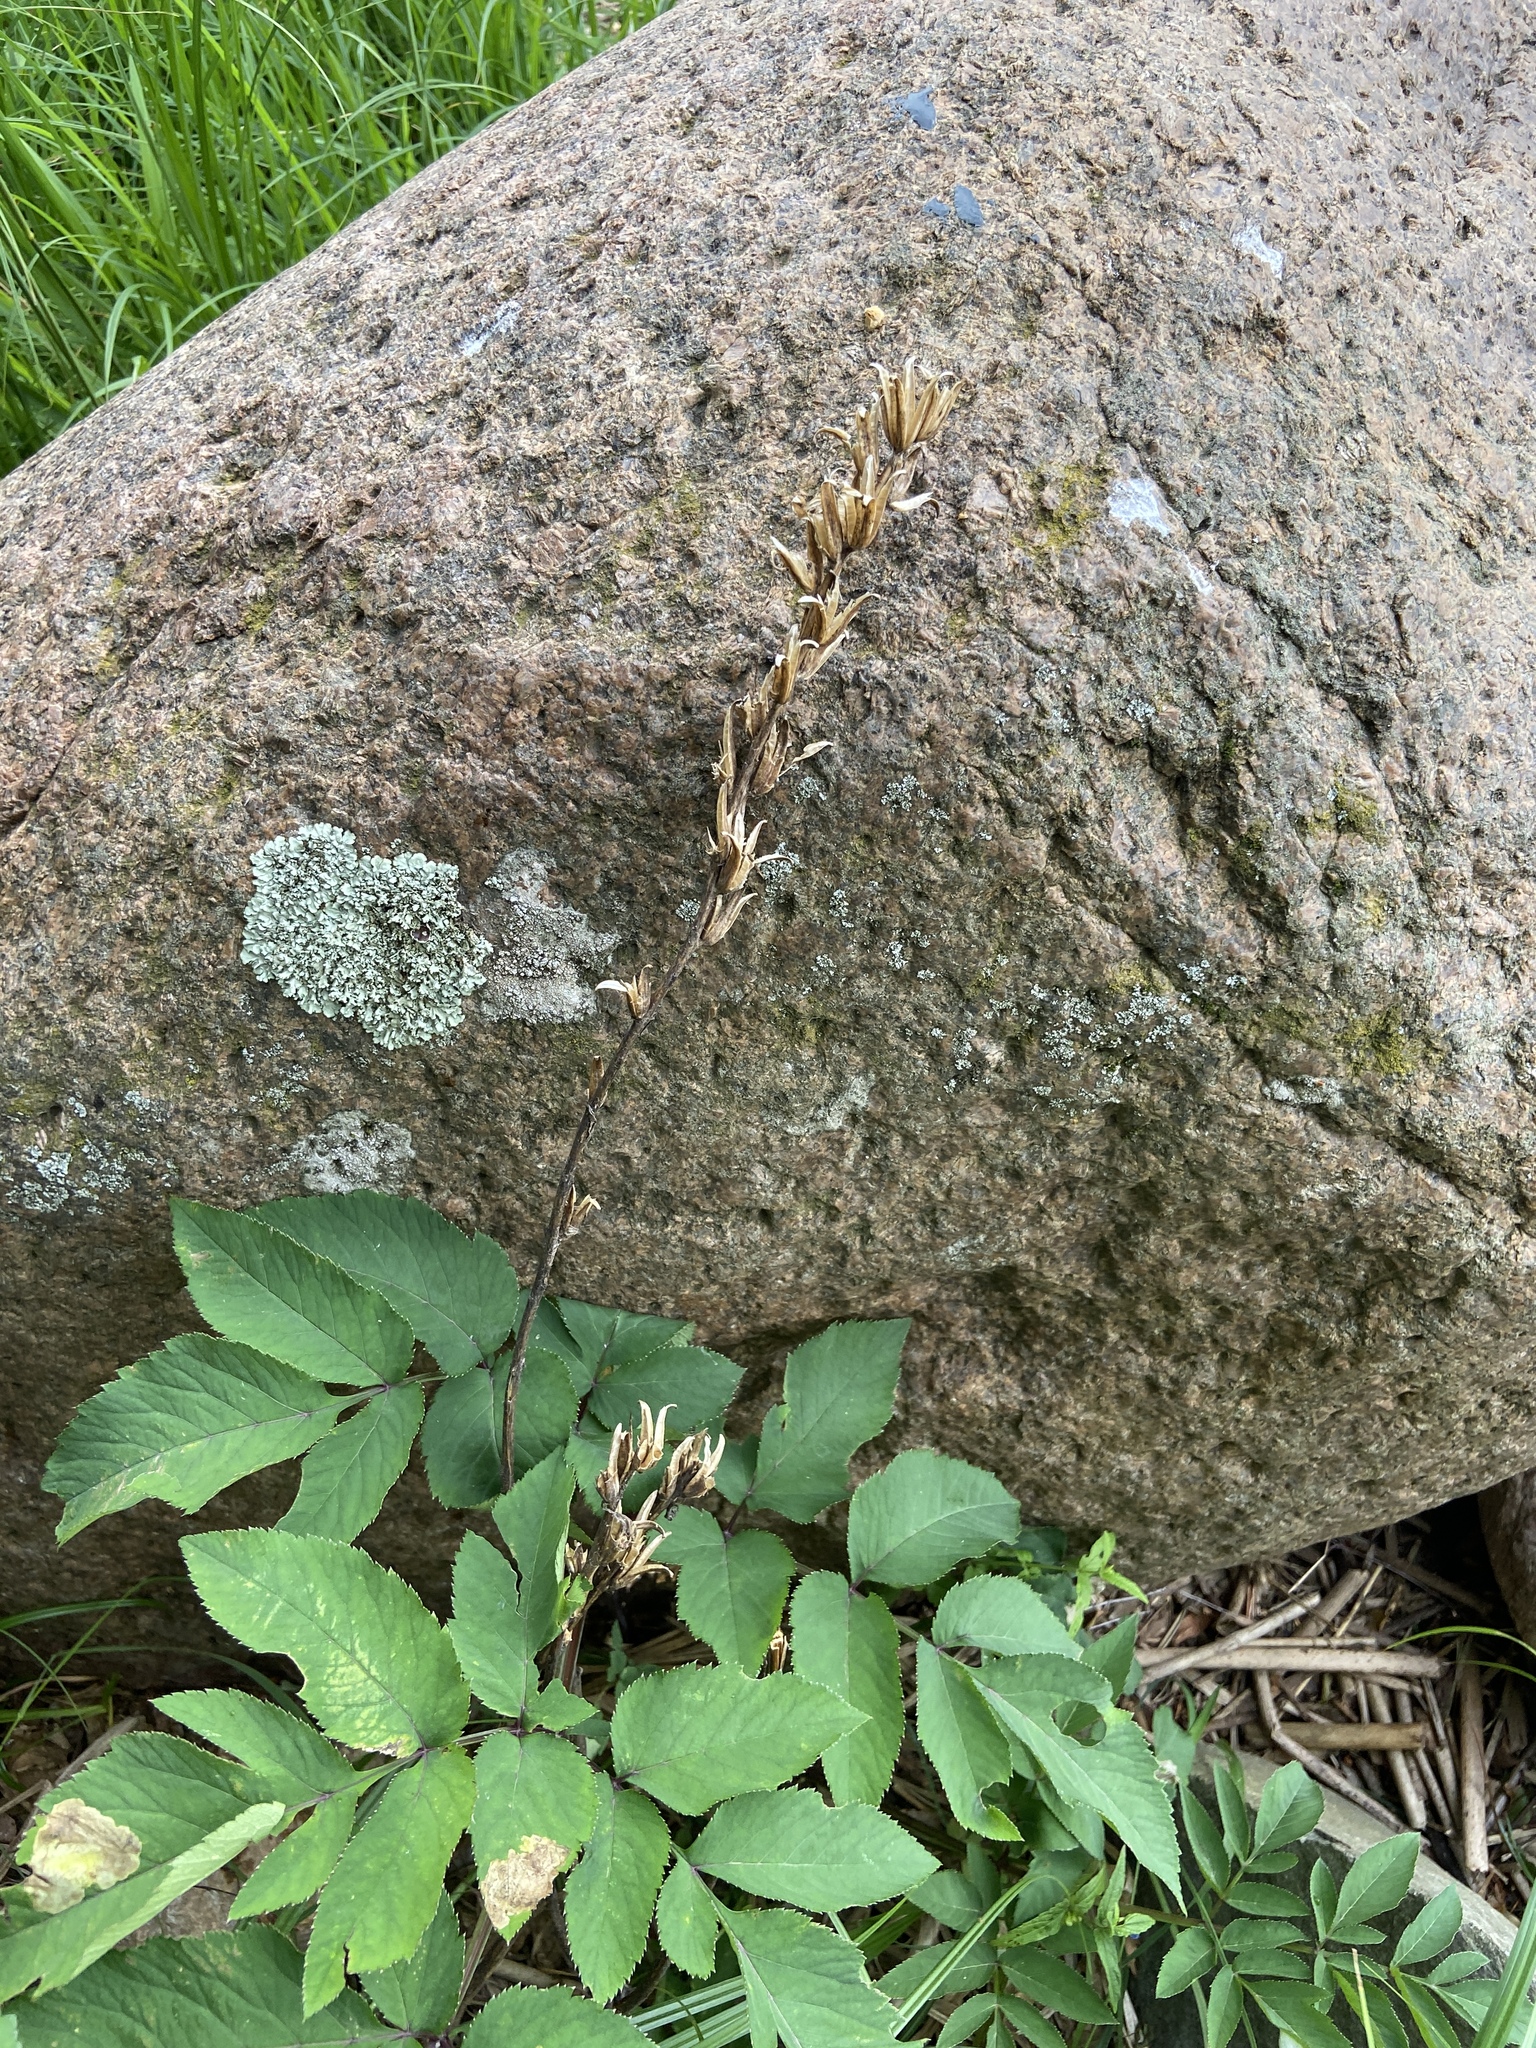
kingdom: Plantae
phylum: Tracheophyta
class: Magnoliopsida
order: Myrtales
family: Onagraceae
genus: Oenothera
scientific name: Oenothera
